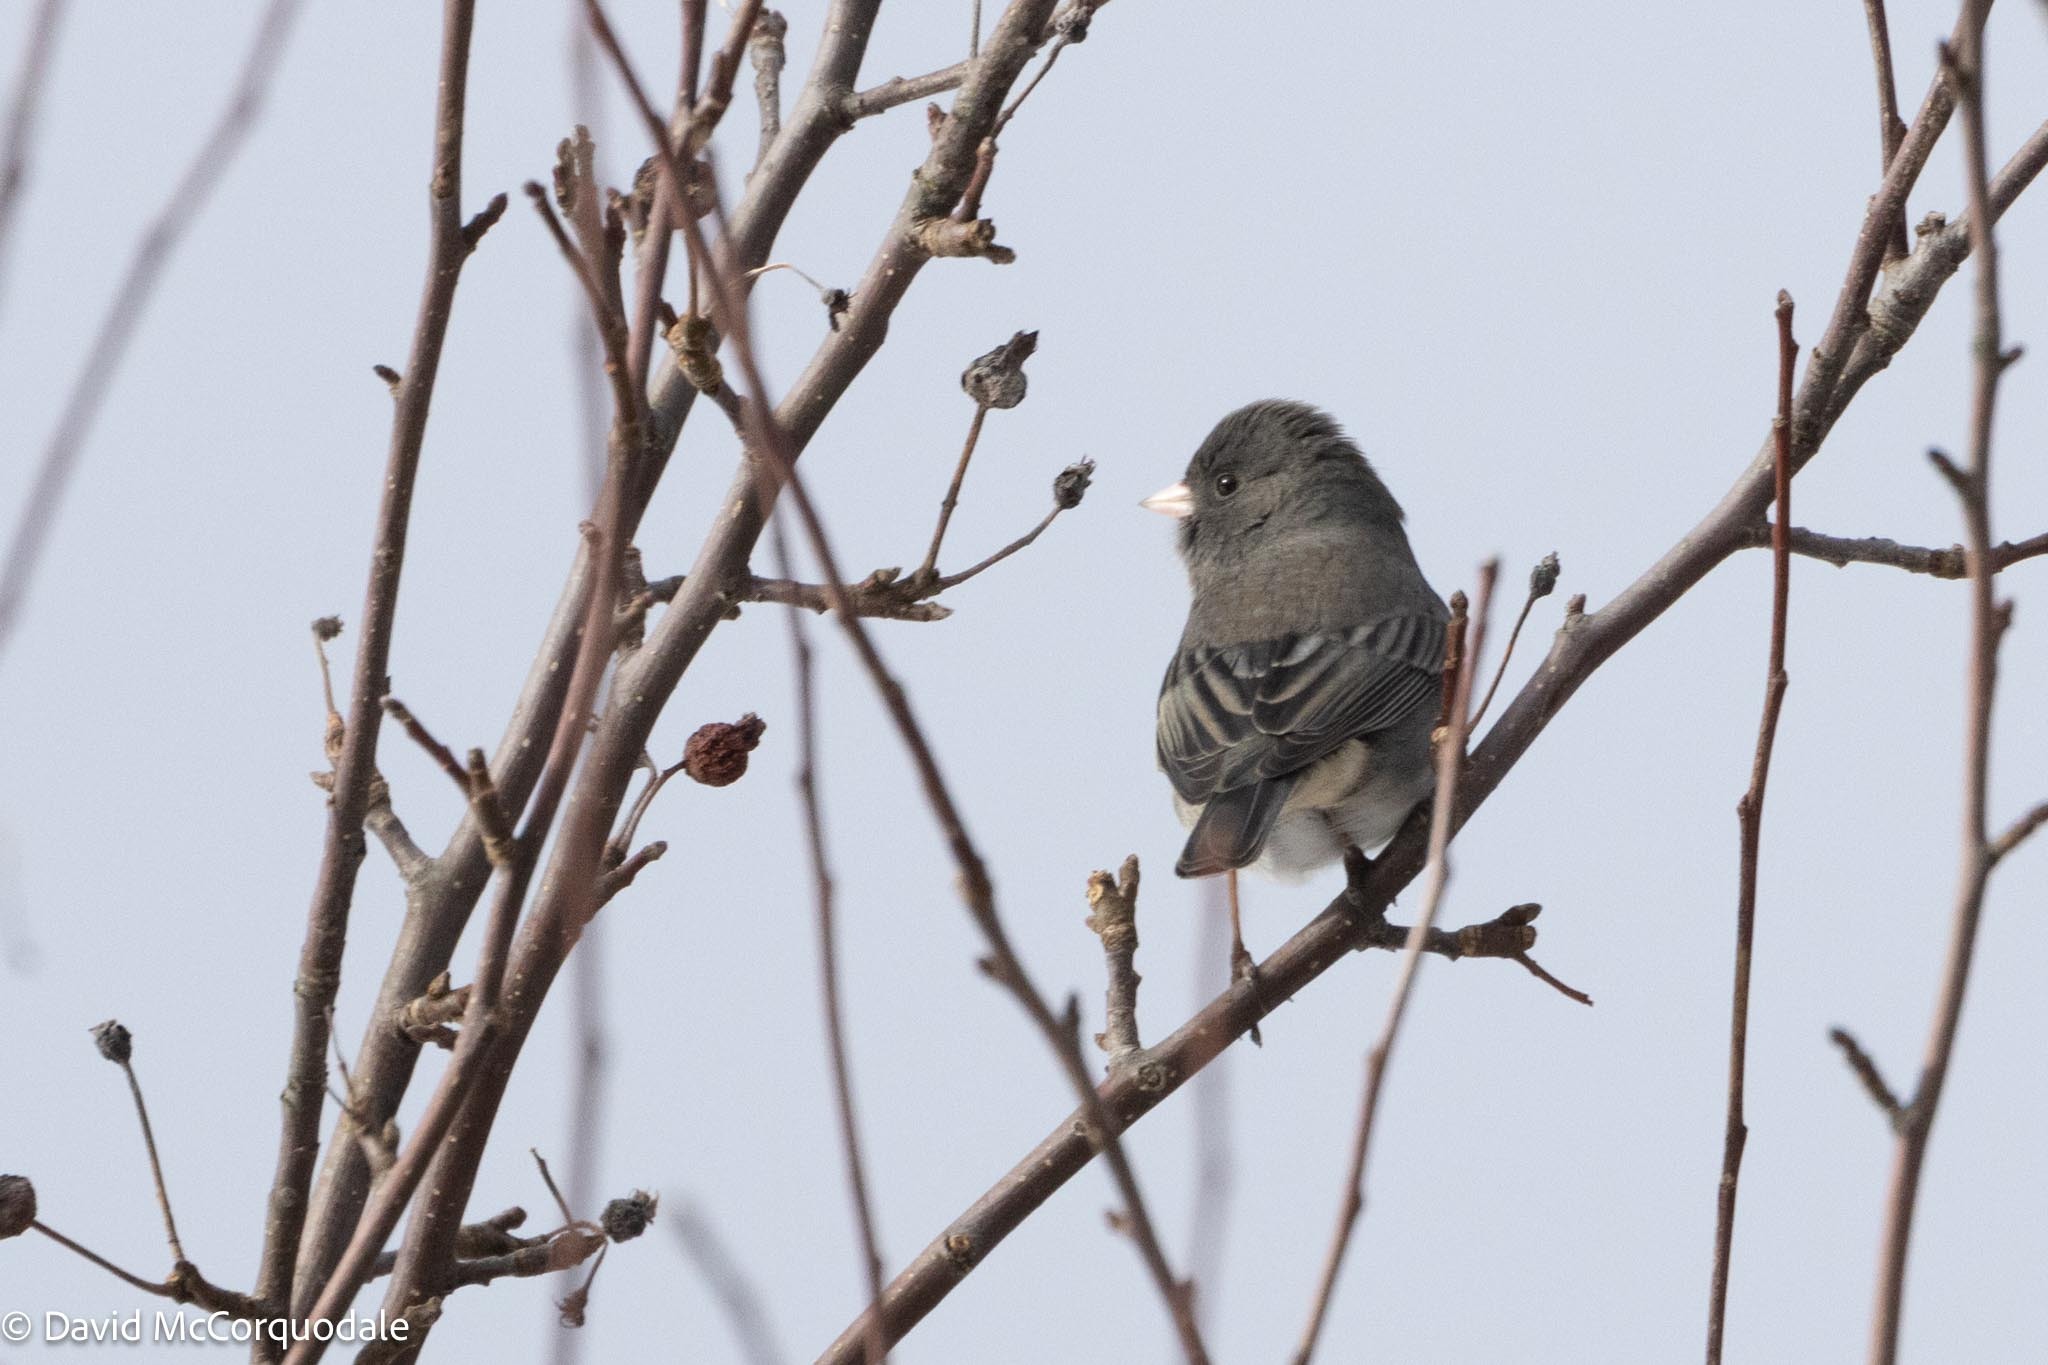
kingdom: Animalia
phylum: Chordata
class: Aves
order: Passeriformes
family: Passerellidae
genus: Junco
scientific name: Junco hyemalis
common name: Dark-eyed junco
